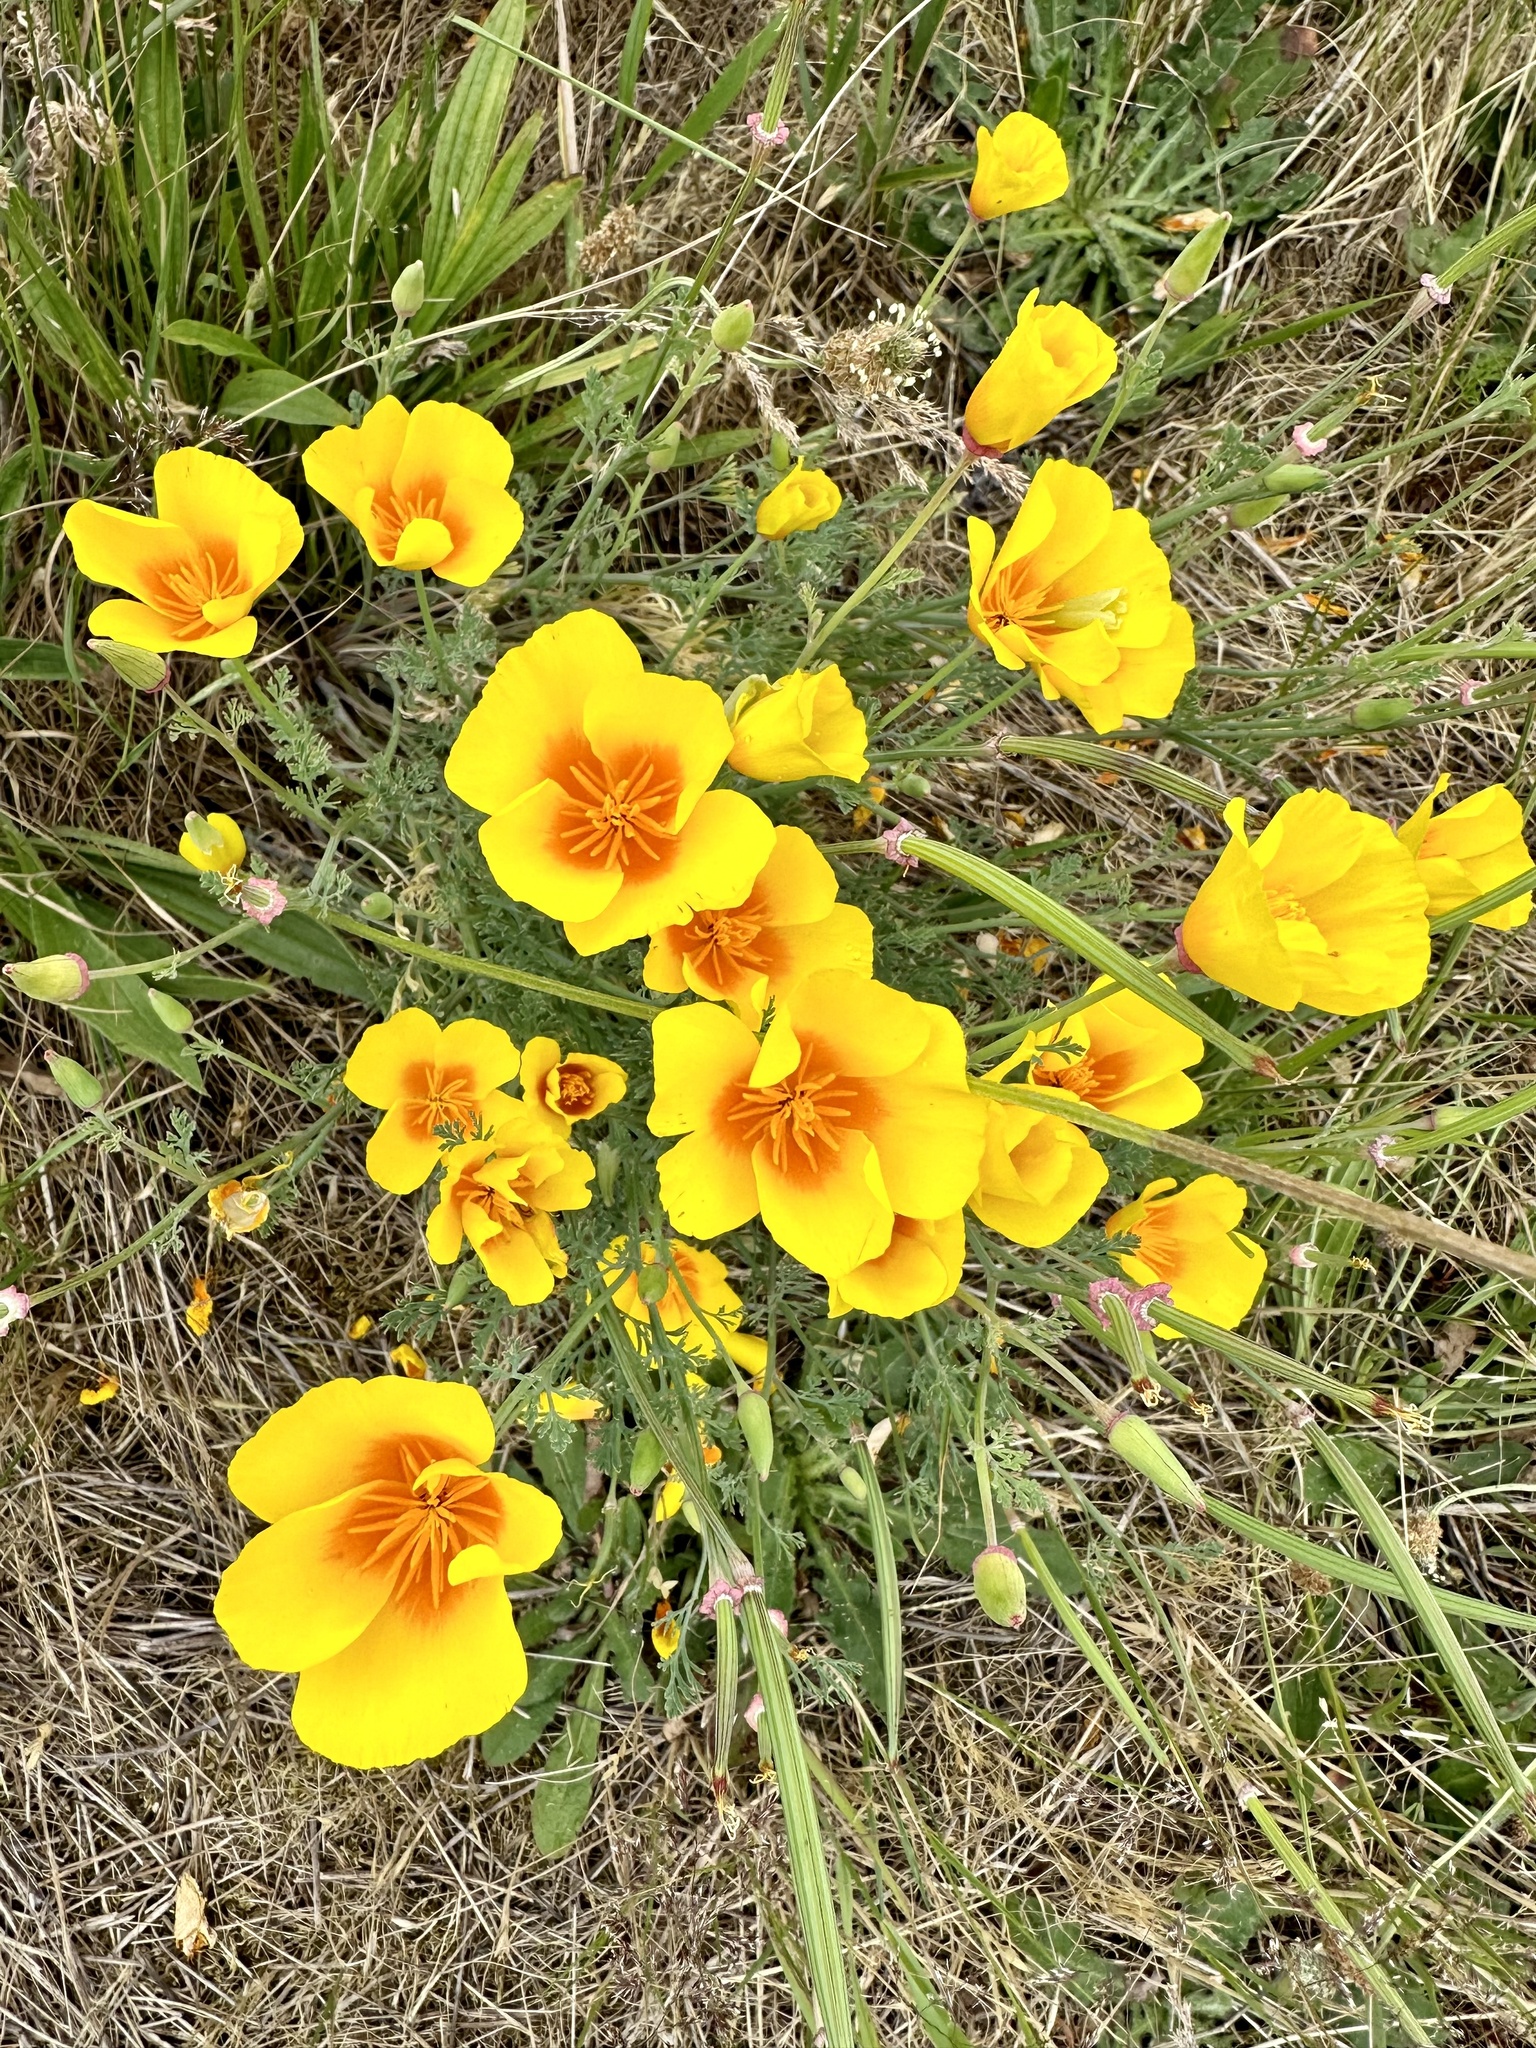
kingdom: Plantae
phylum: Tracheophyta
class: Magnoliopsida
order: Ranunculales
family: Papaveraceae
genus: Eschscholzia
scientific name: Eschscholzia californica
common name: California poppy
